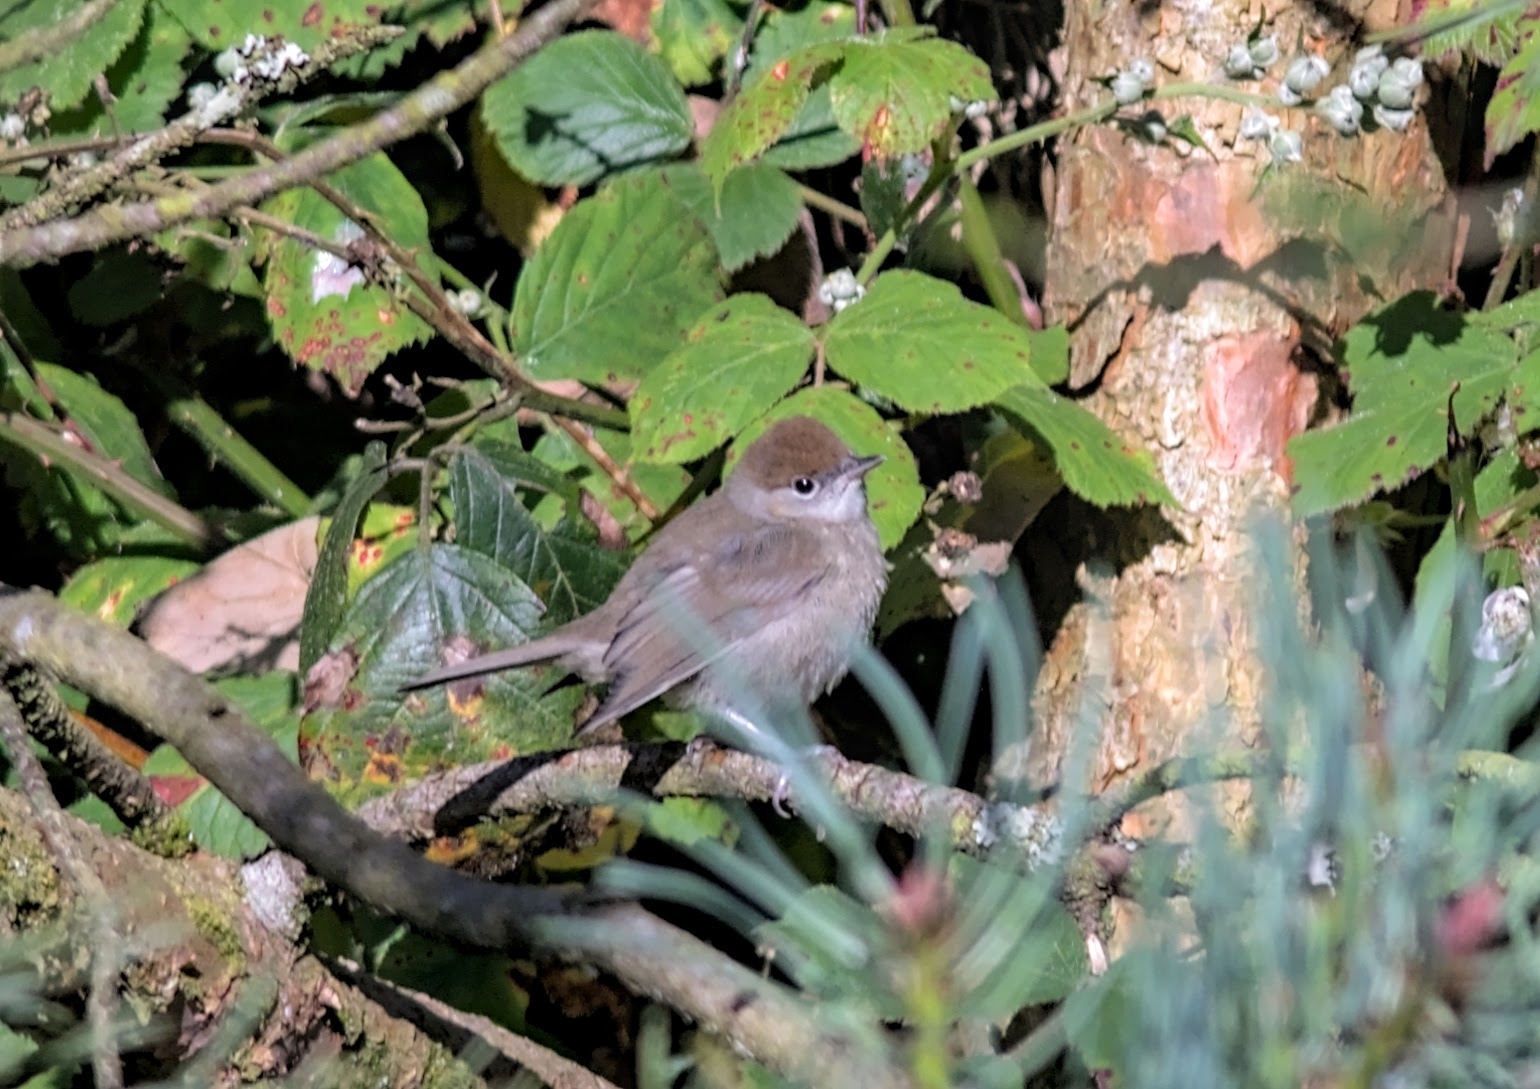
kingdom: Animalia
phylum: Chordata
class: Aves
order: Passeriformes
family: Sylviidae
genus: Sylvia
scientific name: Sylvia atricapilla
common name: Eurasian blackcap
